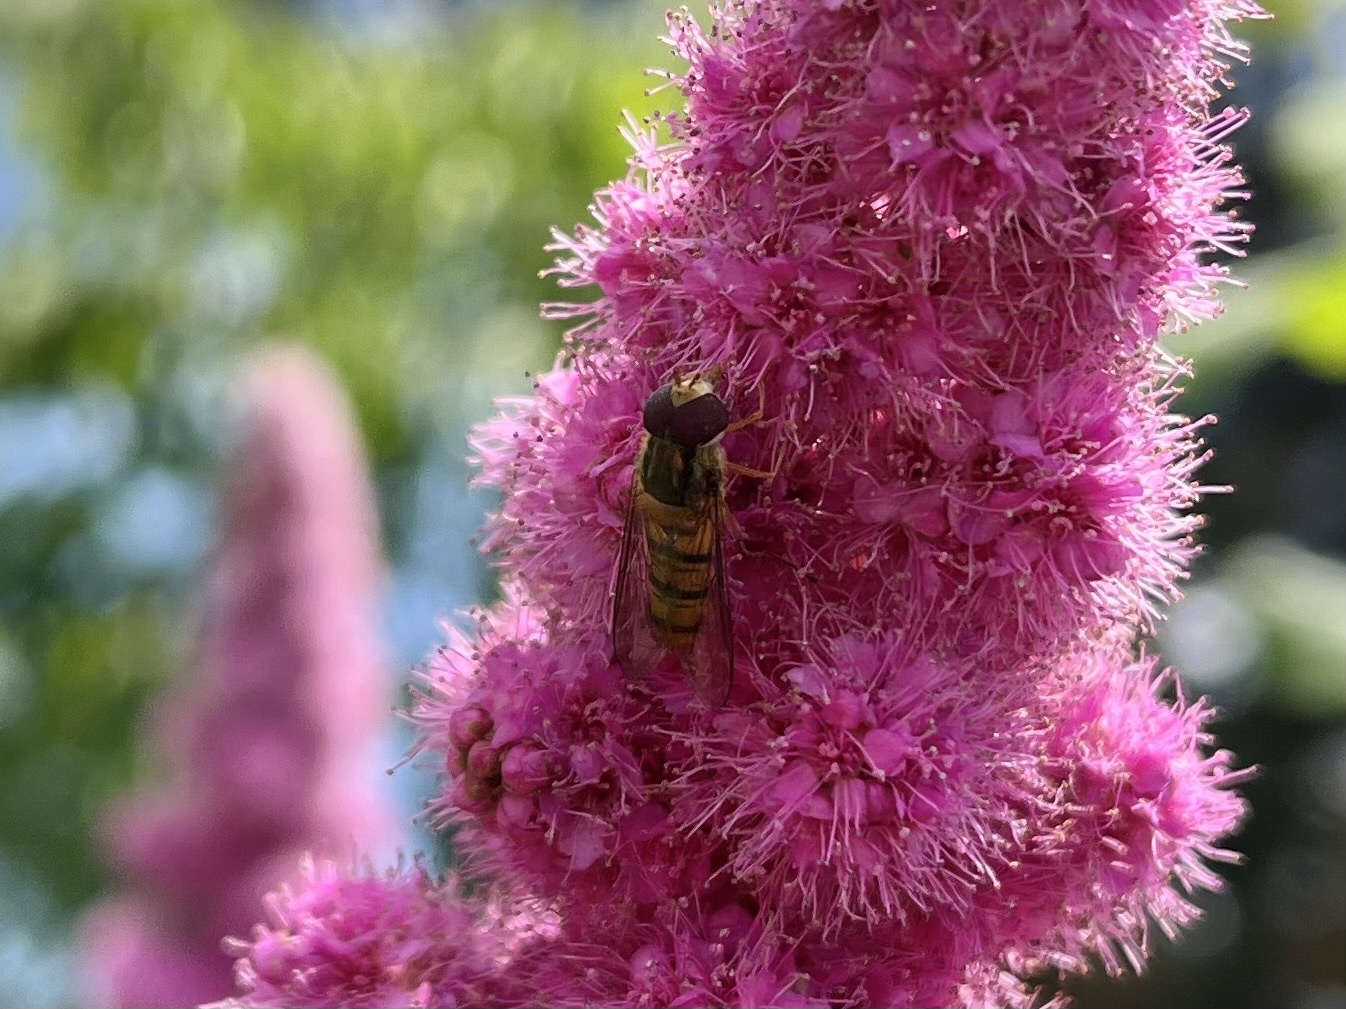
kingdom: Animalia
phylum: Arthropoda
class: Insecta
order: Diptera
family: Syrphidae
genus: Episyrphus
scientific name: Episyrphus balteatus
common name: Marmalade hoverfly
